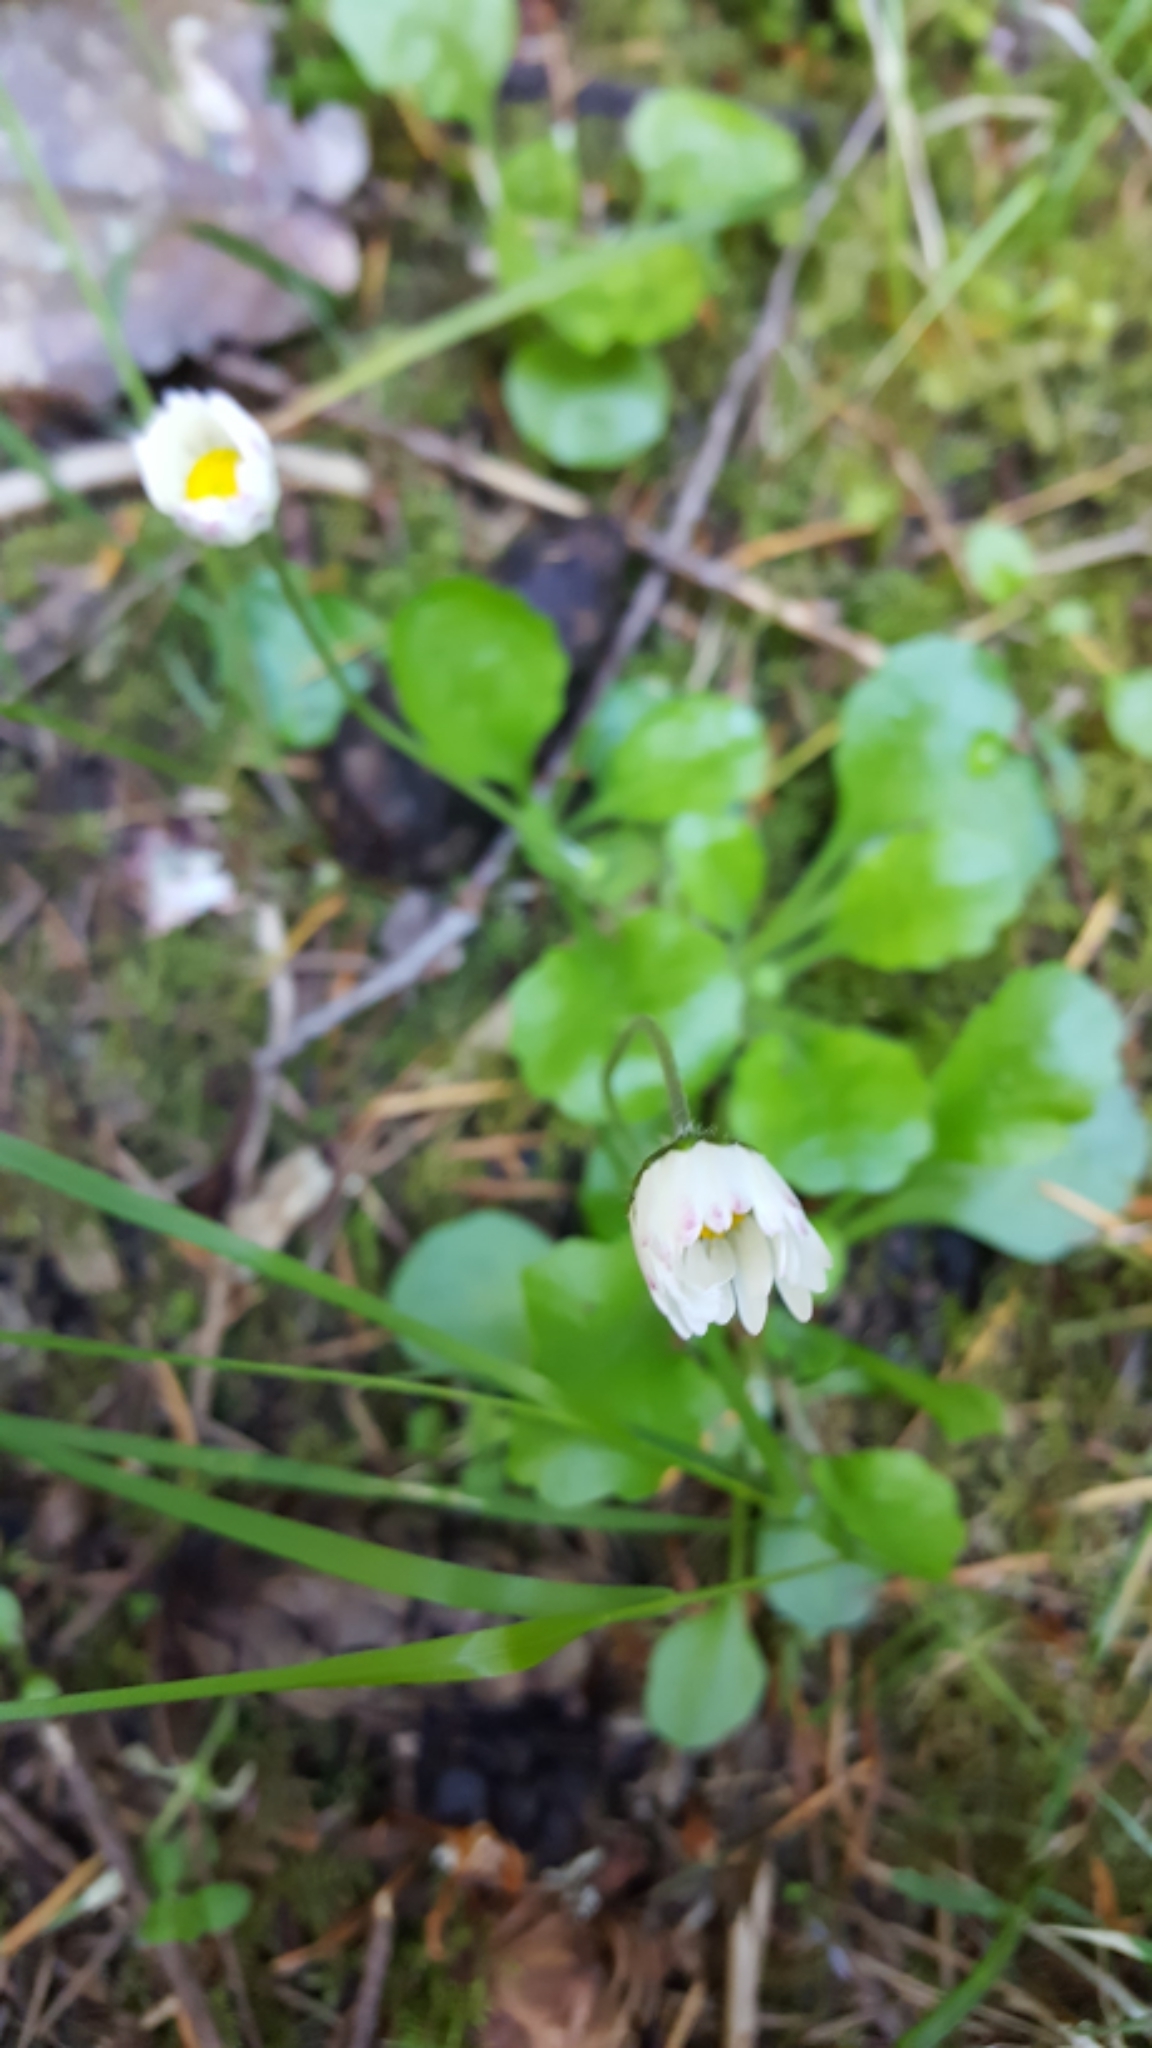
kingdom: Plantae
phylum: Tracheophyta
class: Magnoliopsida
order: Asterales
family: Asteraceae
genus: Bellis
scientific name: Bellis perennis
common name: Lawndaisy
